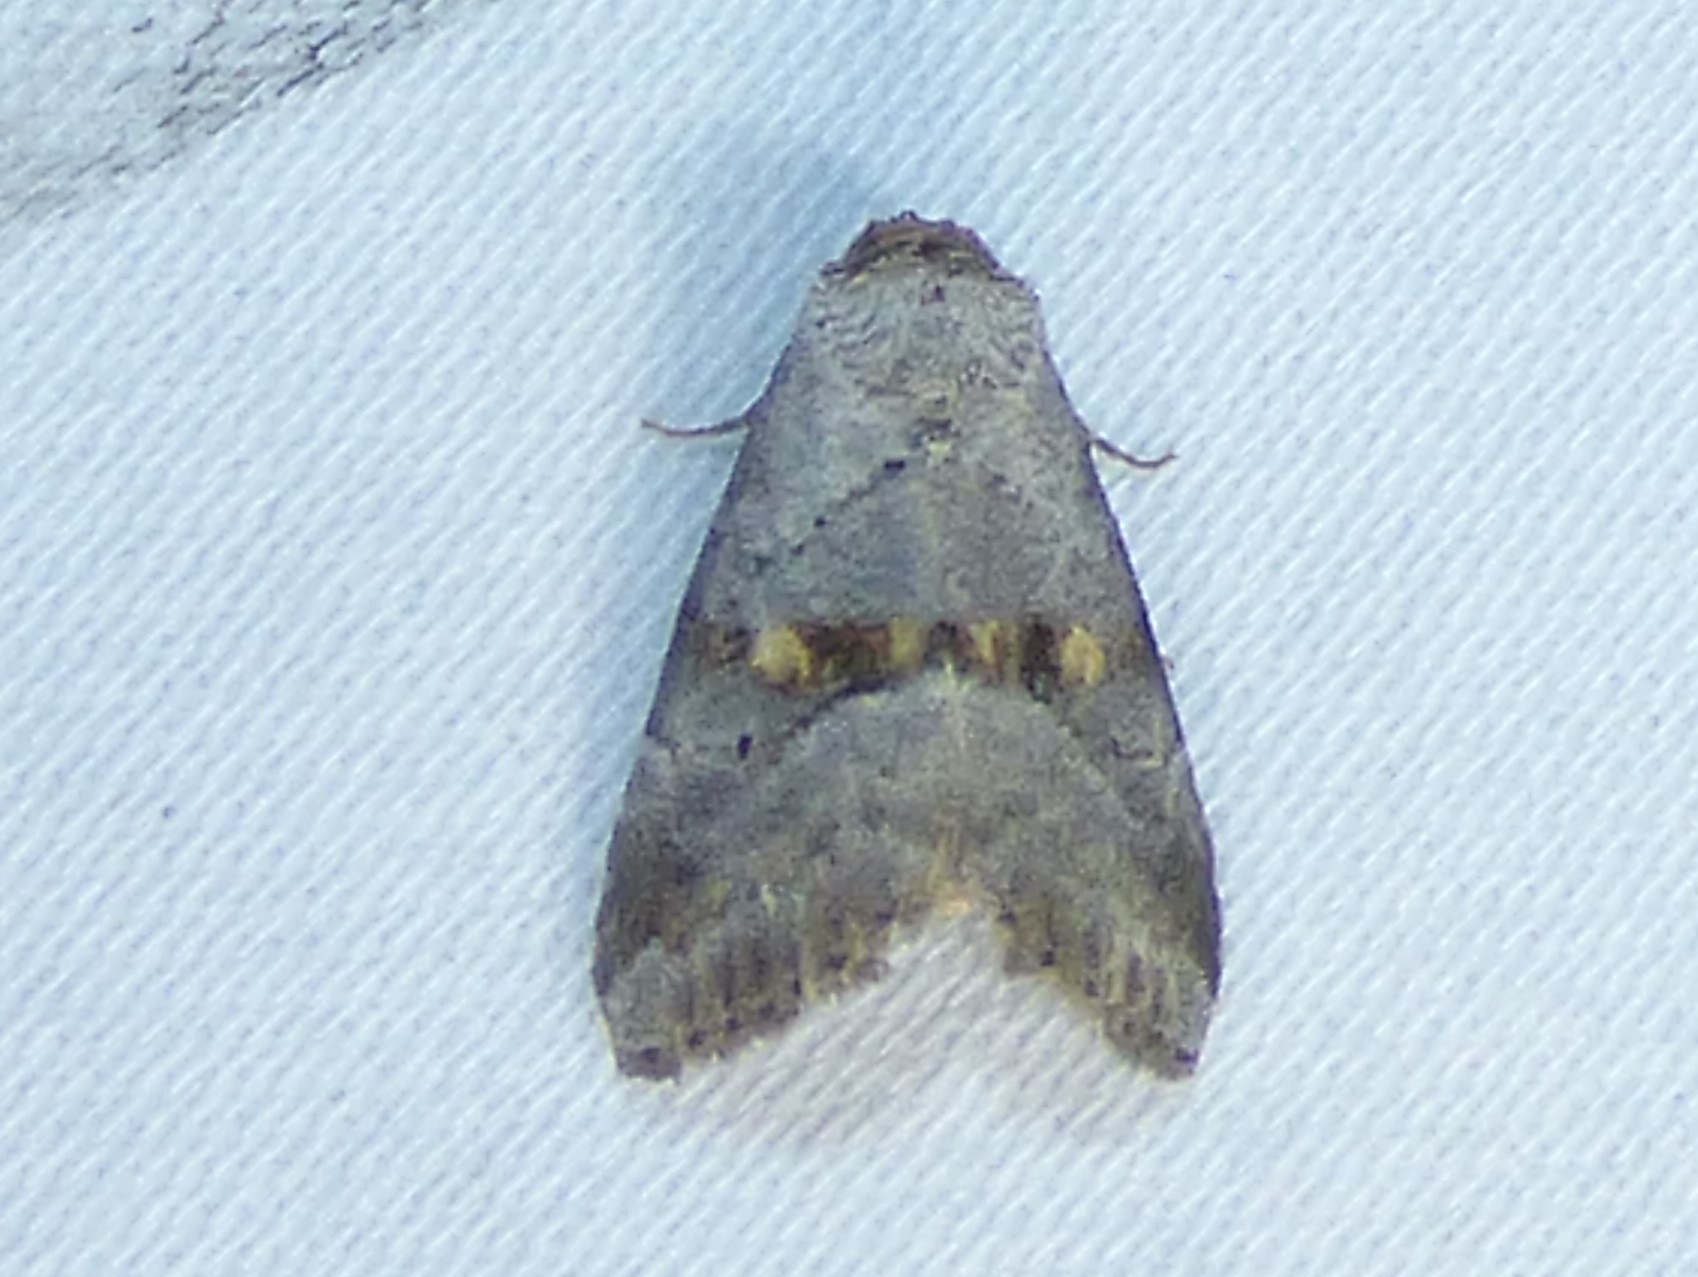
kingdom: Animalia
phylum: Arthropoda
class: Insecta
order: Lepidoptera
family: Erebidae
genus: Hyperstrotia
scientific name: Hyperstrotia flaviguttata
